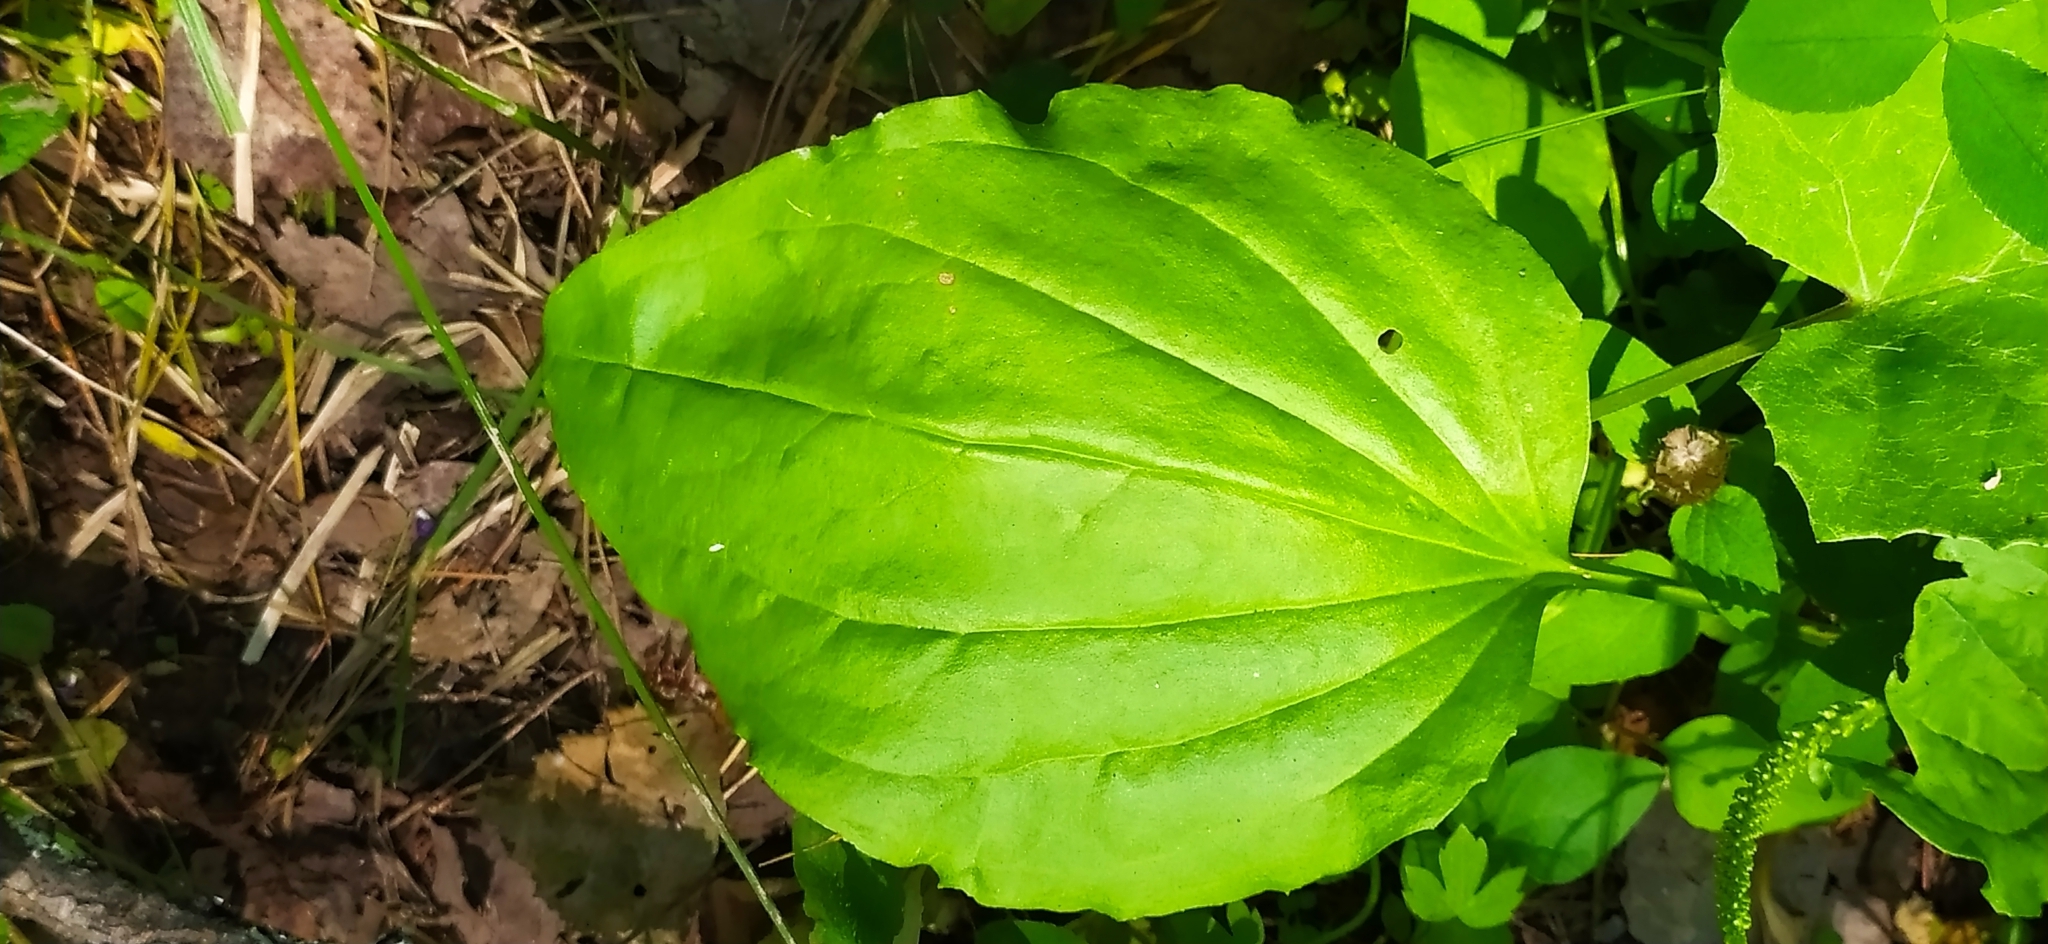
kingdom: Plantae
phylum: Tracheophyta
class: Magnoliopsida
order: Lamiales
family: Plantaginaceae
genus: Plantago
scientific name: Plantago major
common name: Common plantain
